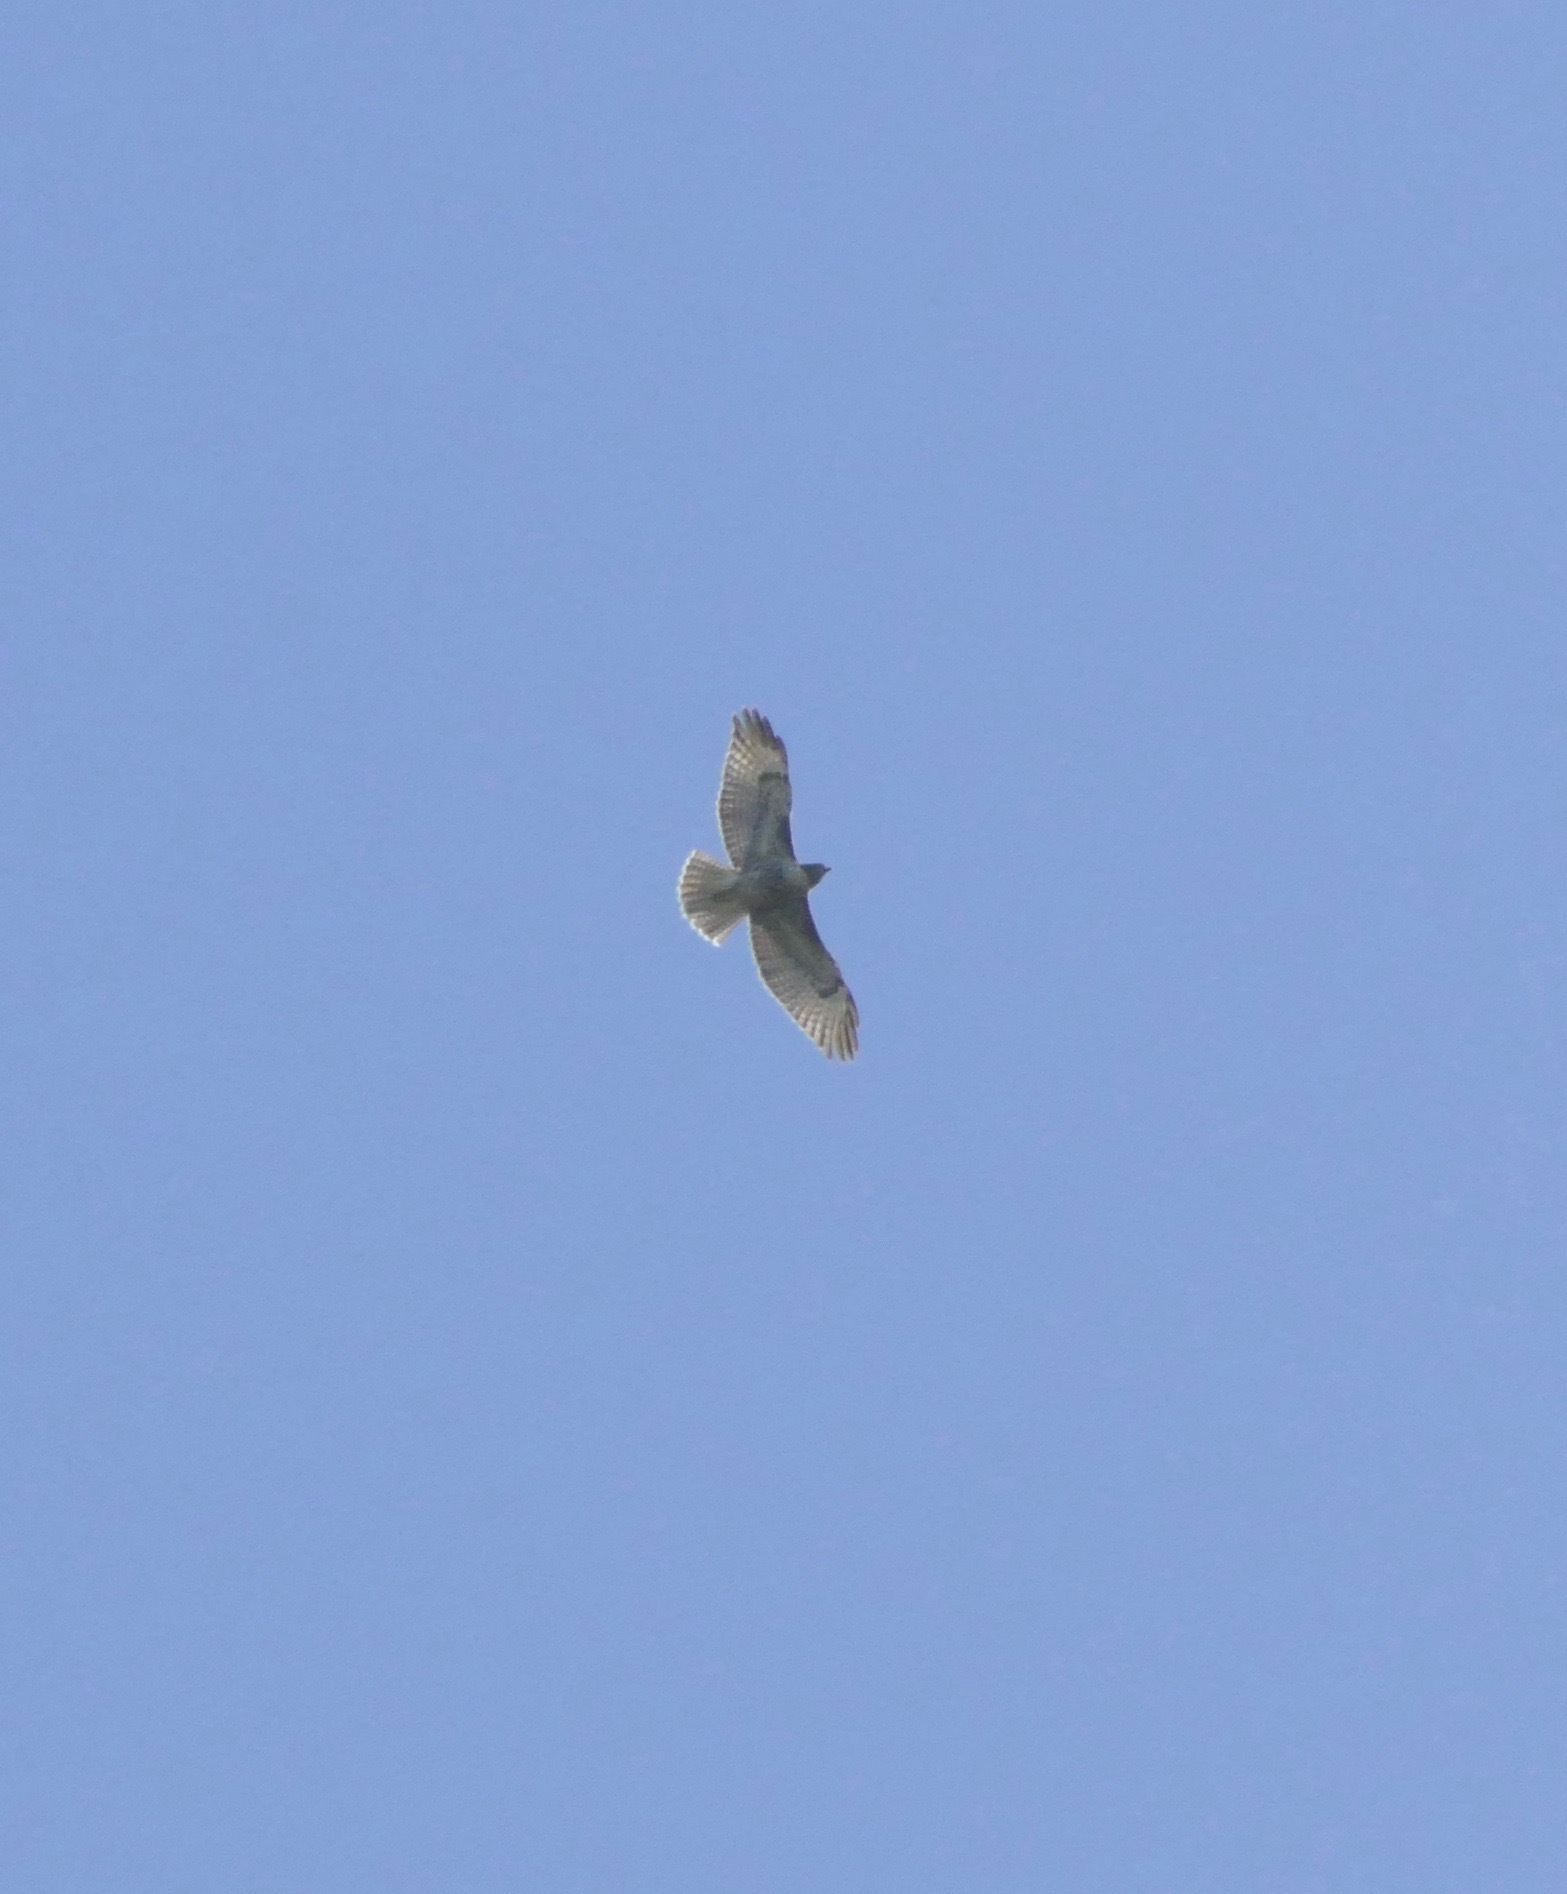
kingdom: Animalia
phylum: Chordata
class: Aves
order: Accipitriformes
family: Accipitridae
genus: Buteo
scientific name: Buteo jamaicensis
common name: Red-tailed hawk
